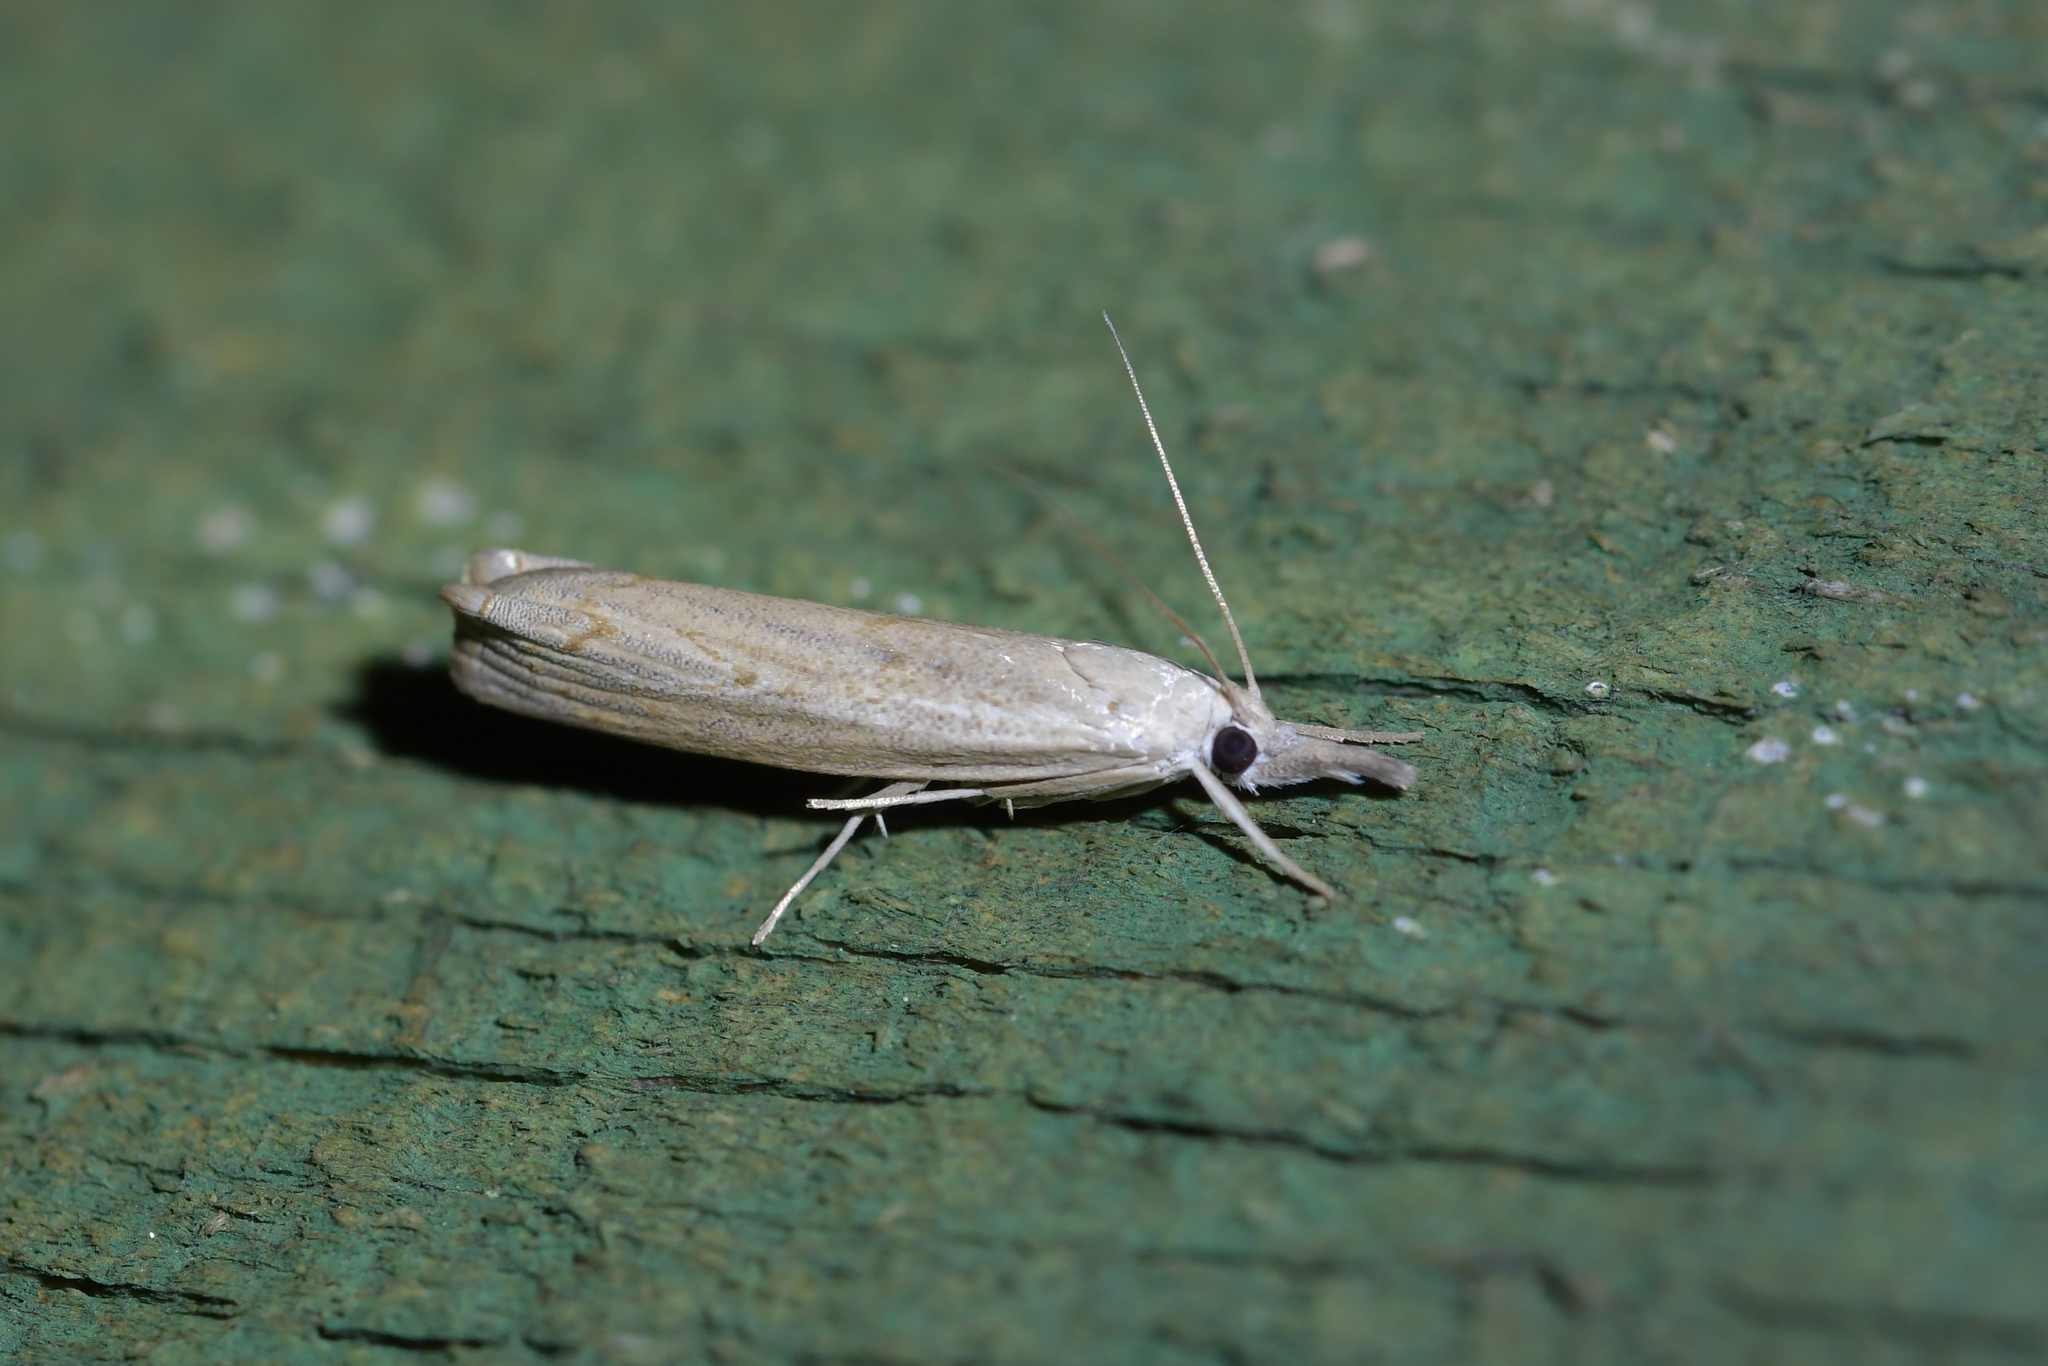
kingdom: Animalia
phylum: Arthropoda
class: Insecta
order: Lepidoptera
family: Crambidae
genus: Culladia
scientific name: Culladia cuneiferellus
